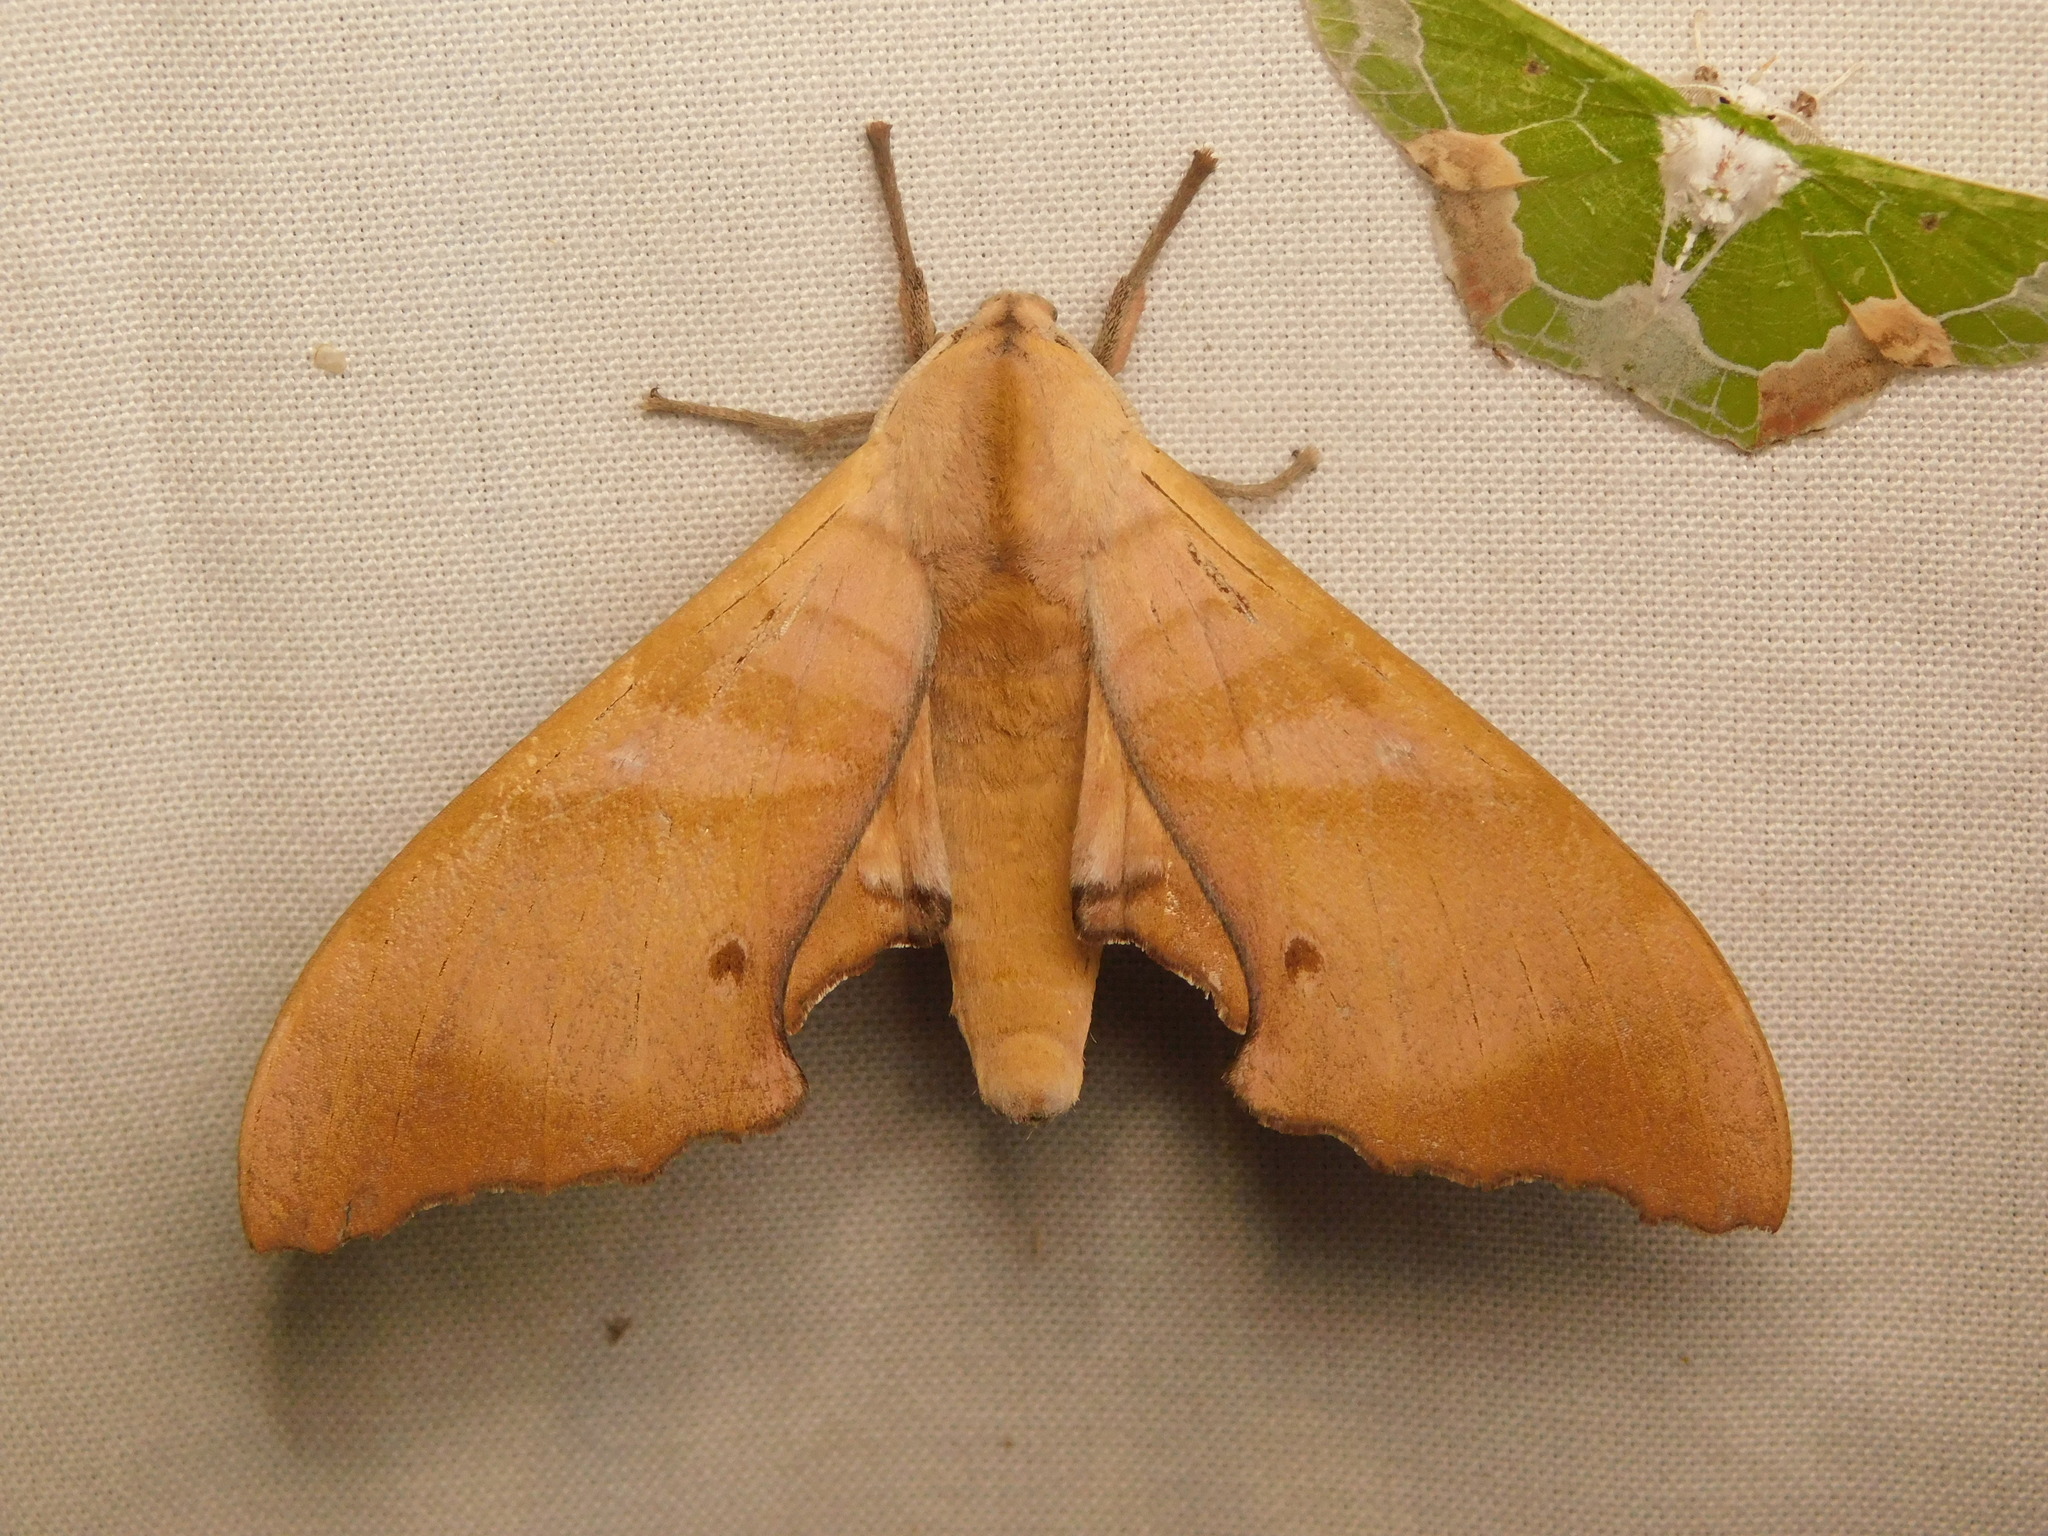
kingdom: Animalia
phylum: Arthropoda
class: Insecta
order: Lepidoptera
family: Sphingidae
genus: Marumba
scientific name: Marumba nympha
